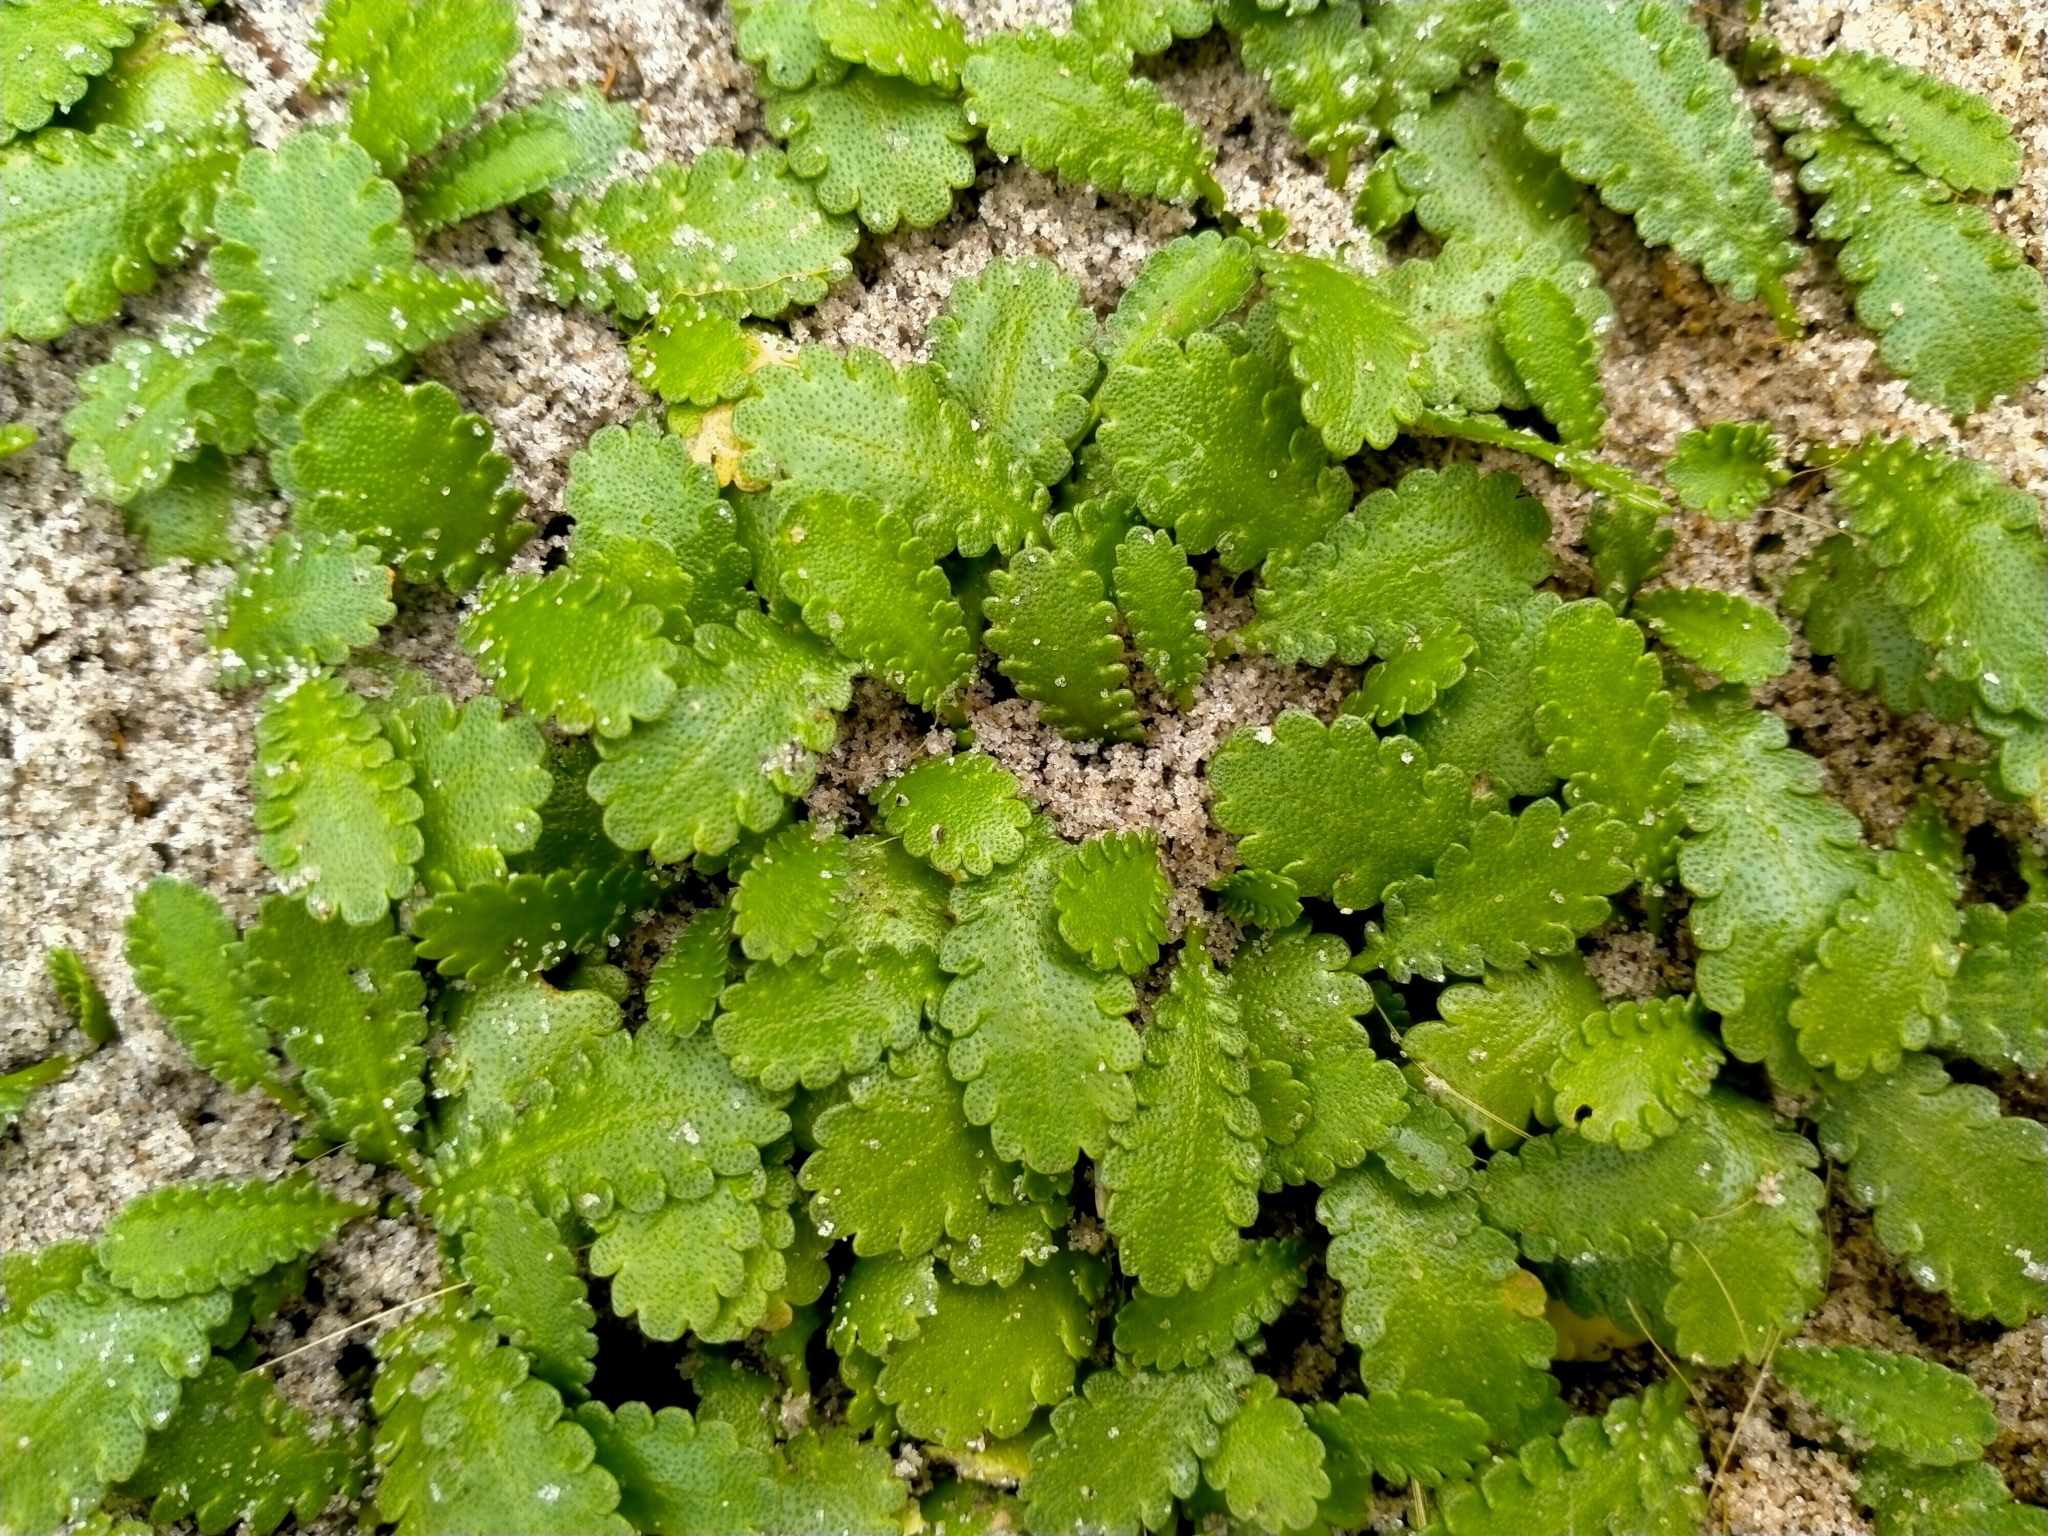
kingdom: Plantae
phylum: Tracheophyta
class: Magnoliopsida
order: Asterales
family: Asteraceae
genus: Leptinella
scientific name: Leptinella dioica
